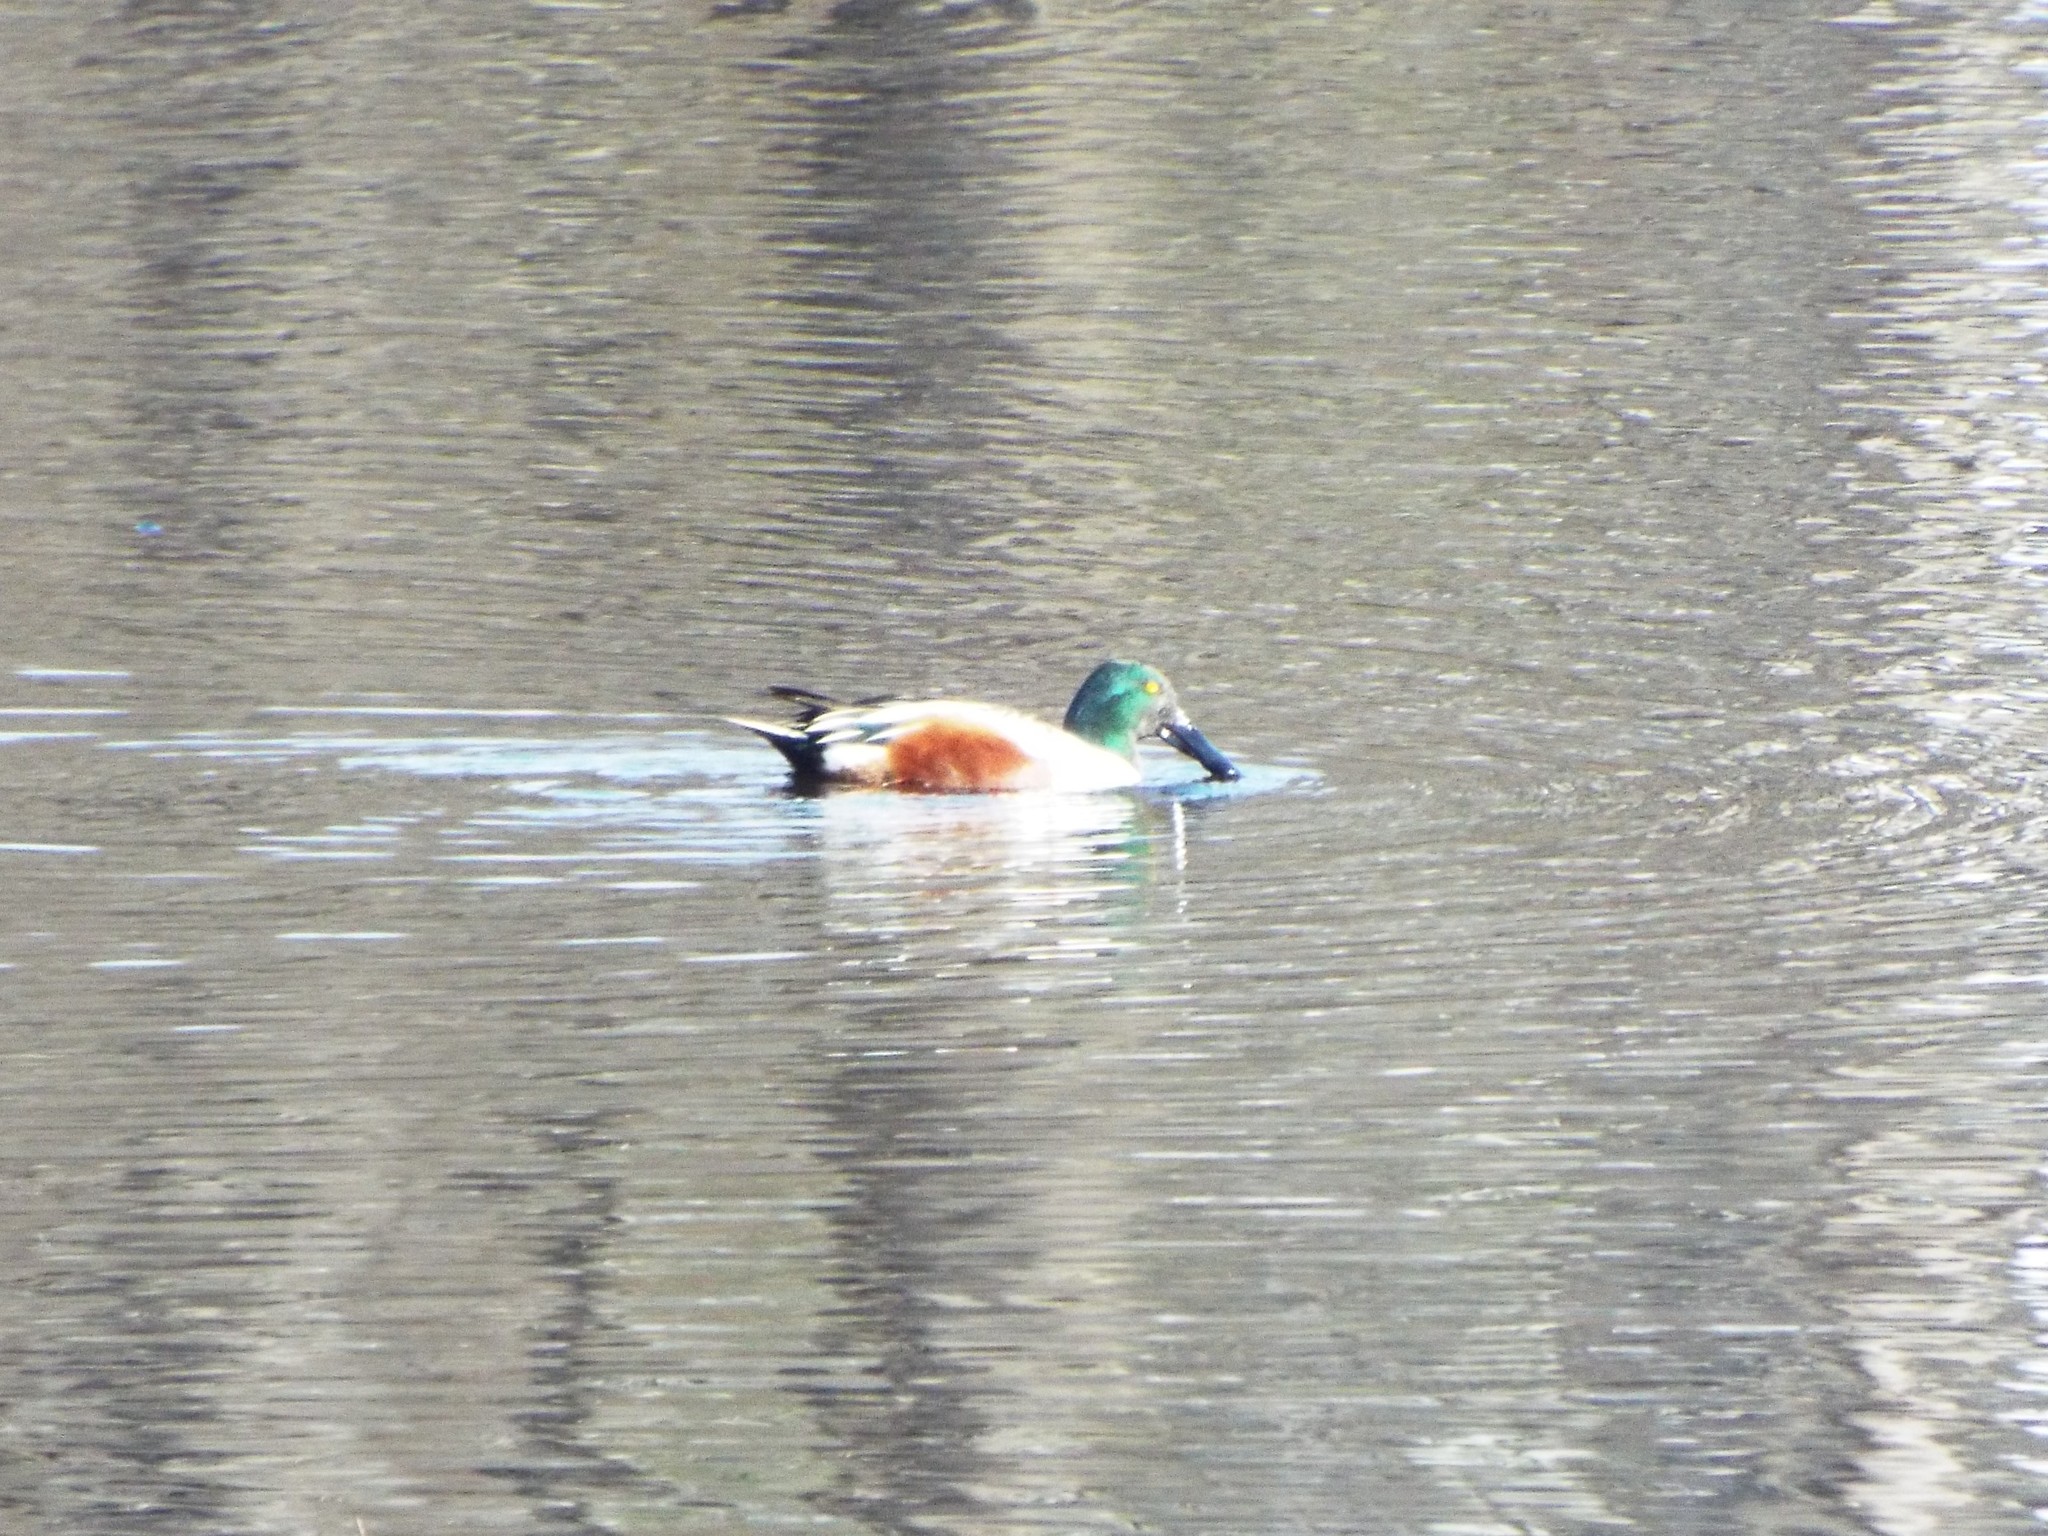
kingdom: Animalia
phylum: Chordata
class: Aves
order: Anseriformes
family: Anatidae
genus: Spatula
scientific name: Spatula clypeata
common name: Northern shoveler
